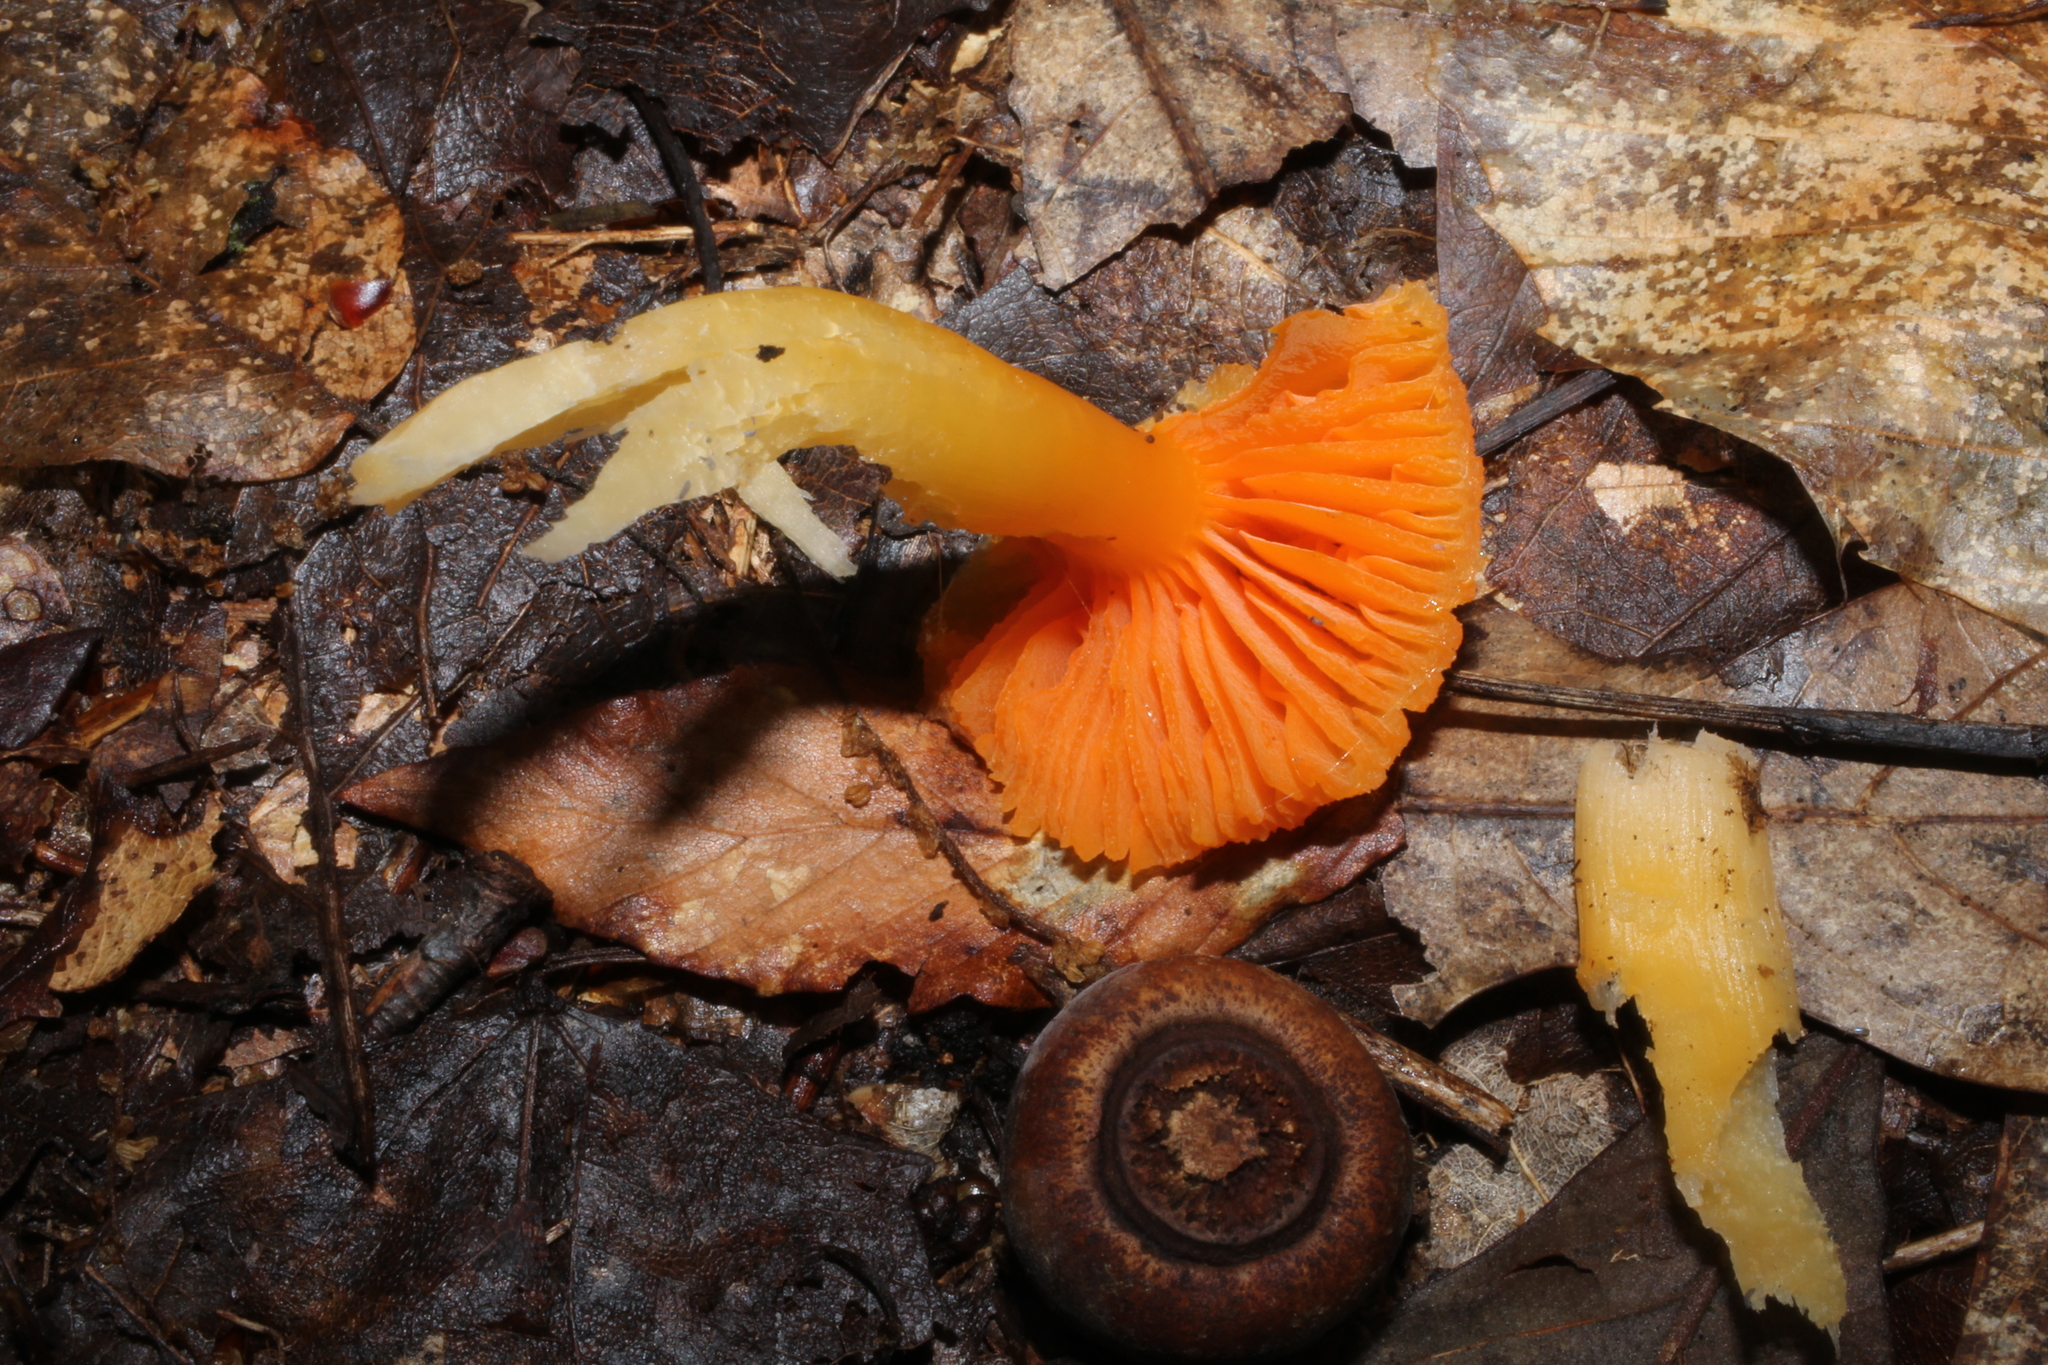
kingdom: Fungi
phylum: Basidiomycota
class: Agaricomycetes
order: Agaricales
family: Hygrophoraceae
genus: Humidicutis
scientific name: Humidicutis marginata
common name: Orange gilled waxcap
